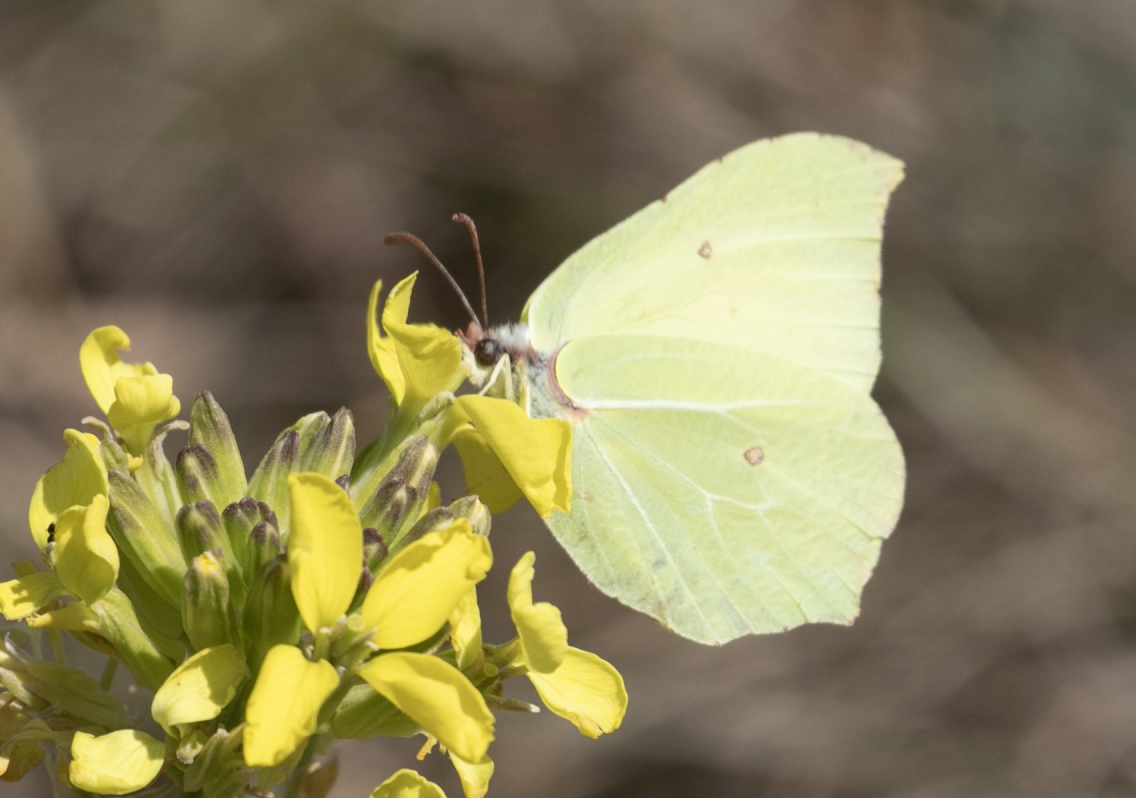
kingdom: Animalia
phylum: Arthropoda
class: Insecta
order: Lepidoptera
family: Pieridae
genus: Gonepteryx
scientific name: Gonepteryx rhamni
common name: Brimstone
